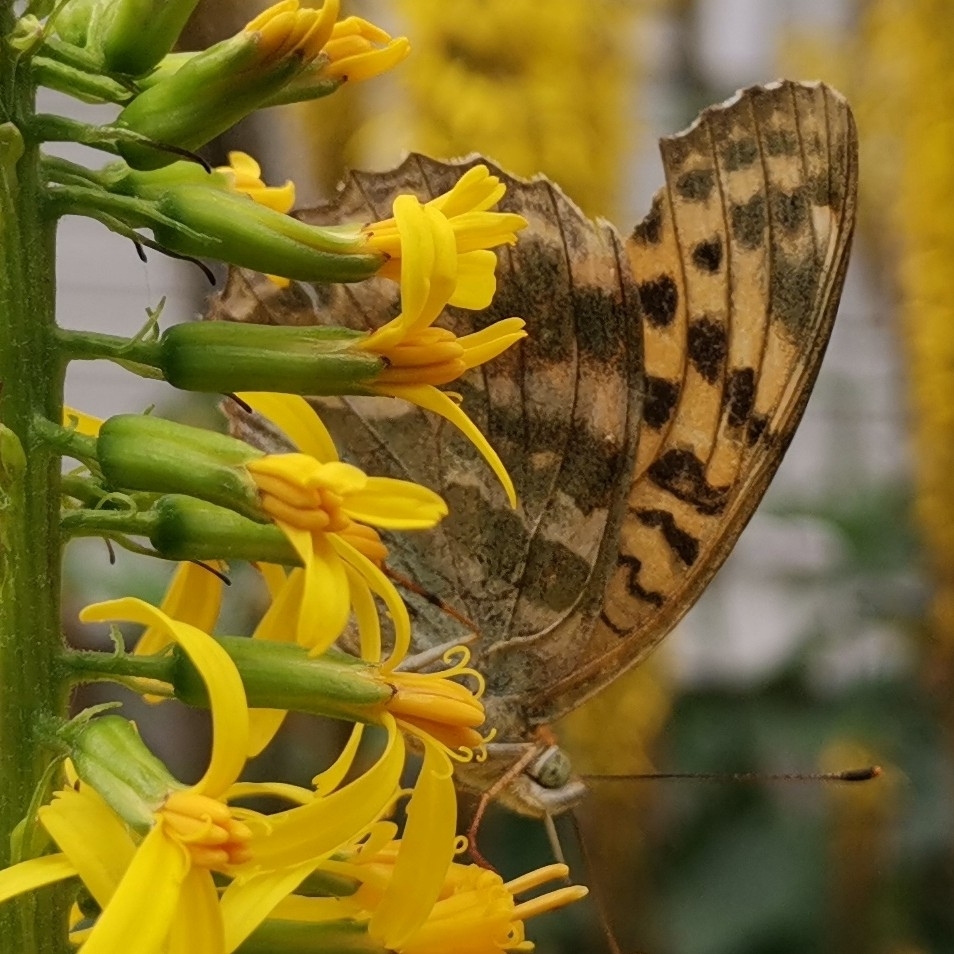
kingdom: Animalia
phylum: Arthropoda
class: Insecta
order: Lepidoptera
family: Nymphalidae
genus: Argynnis
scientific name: Argynnis paphia
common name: Silver-washed fritillary
